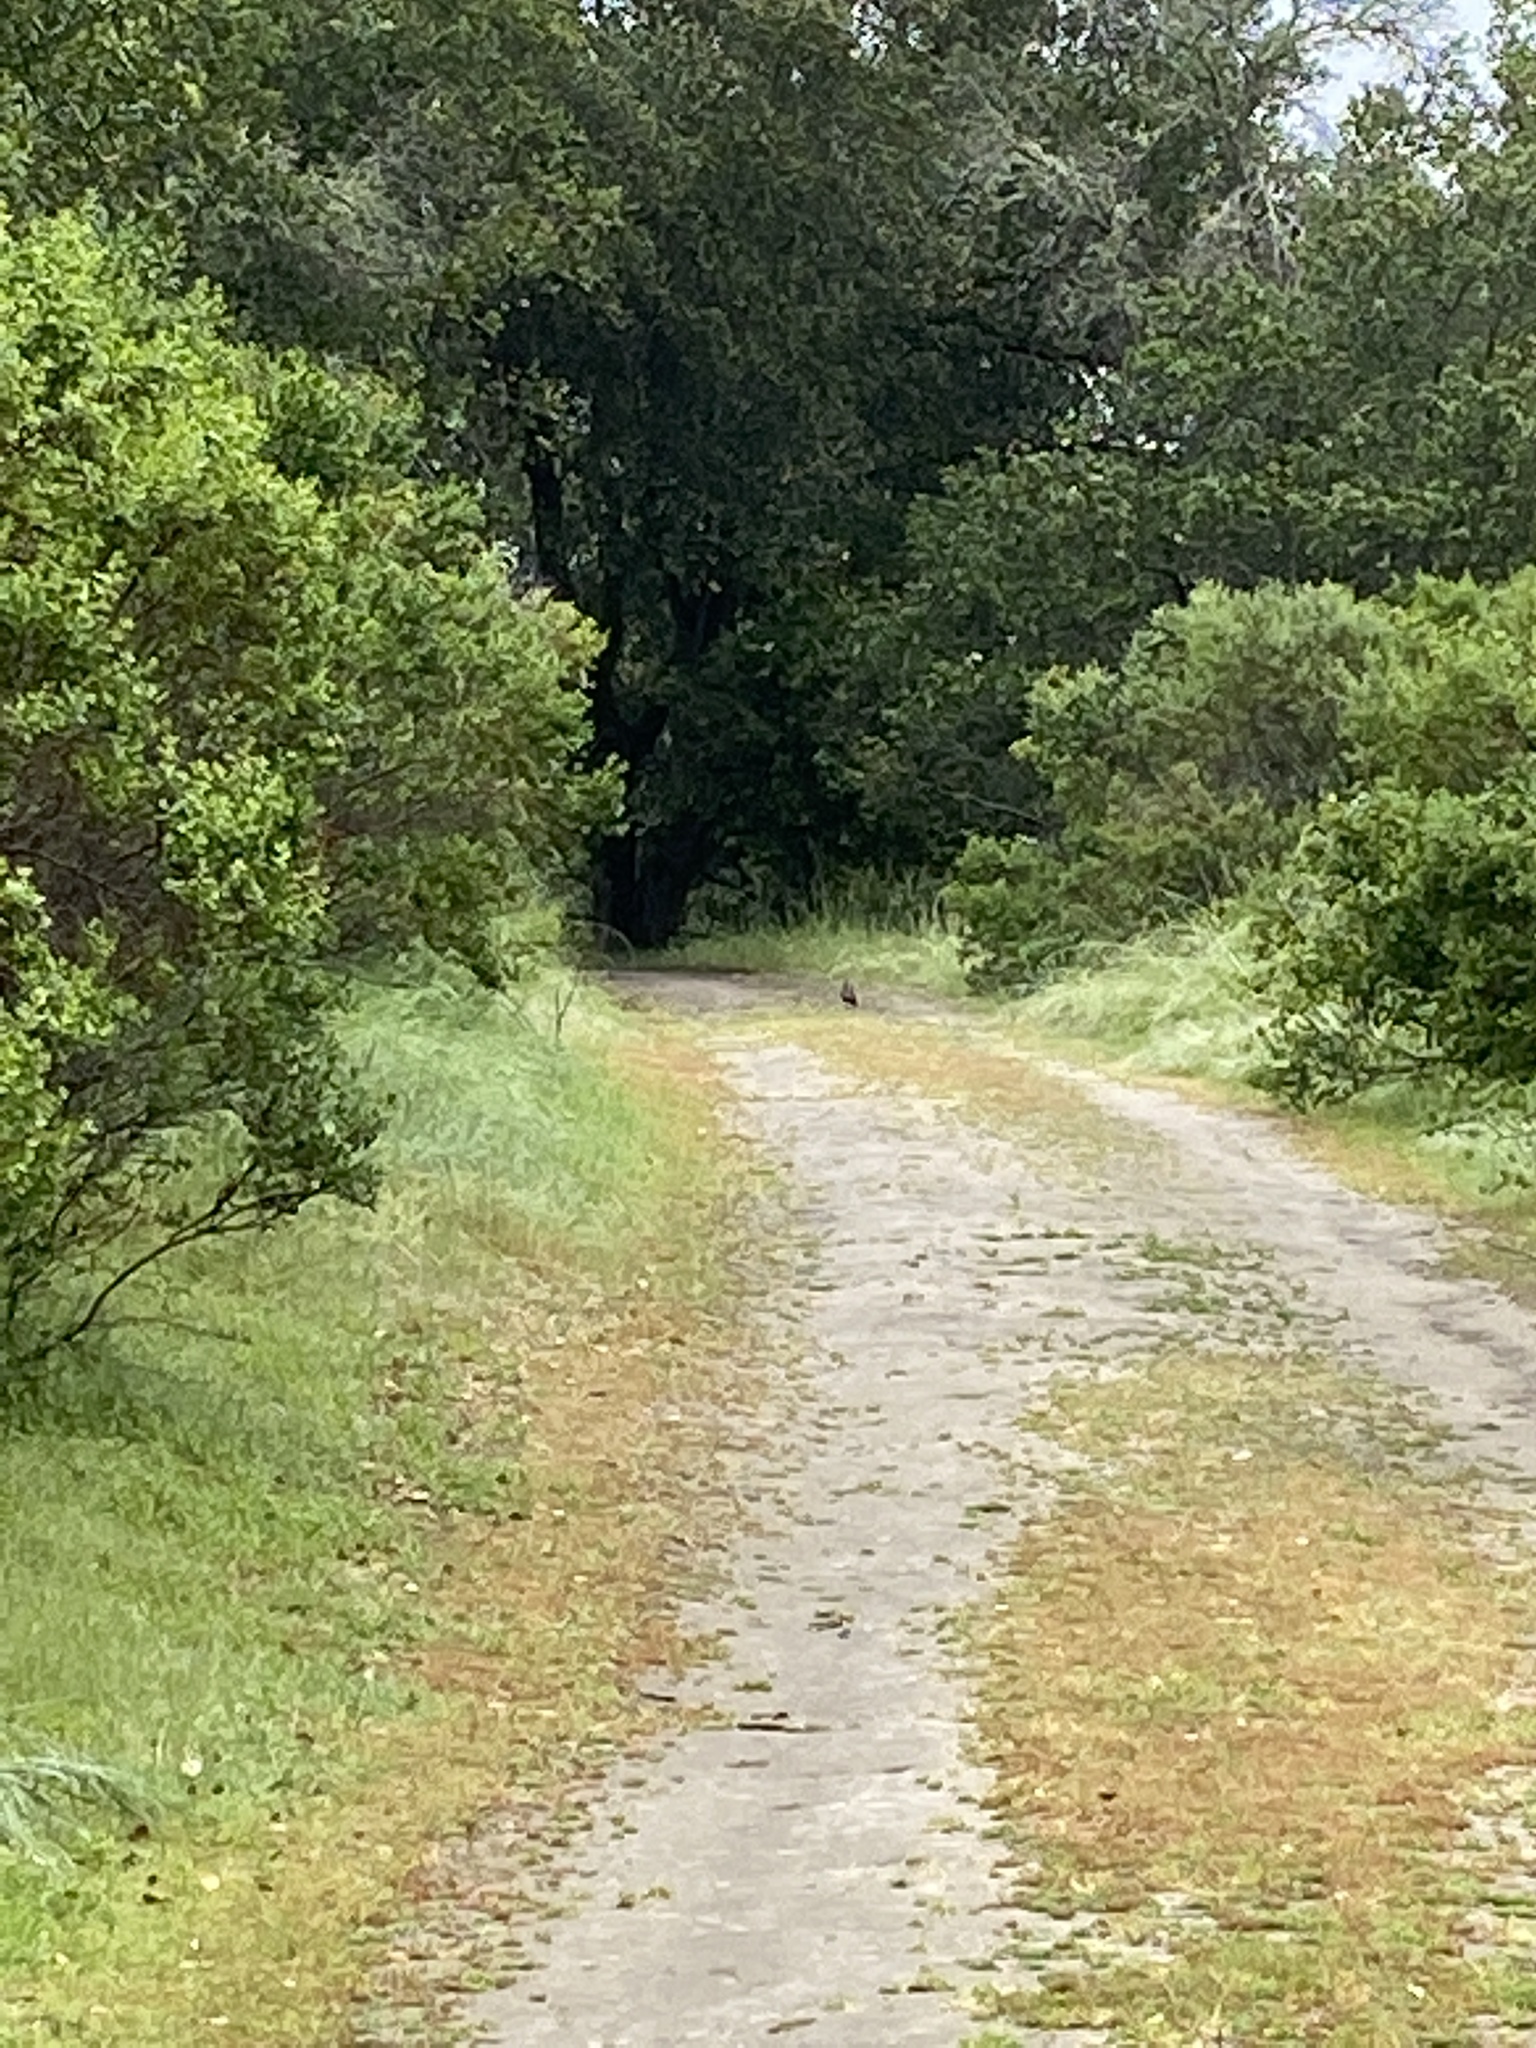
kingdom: Animalia
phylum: Chordata
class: Aves
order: Galliformes
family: Odontophoridae
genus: Callipepla
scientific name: Callipepla californica
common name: California quail
